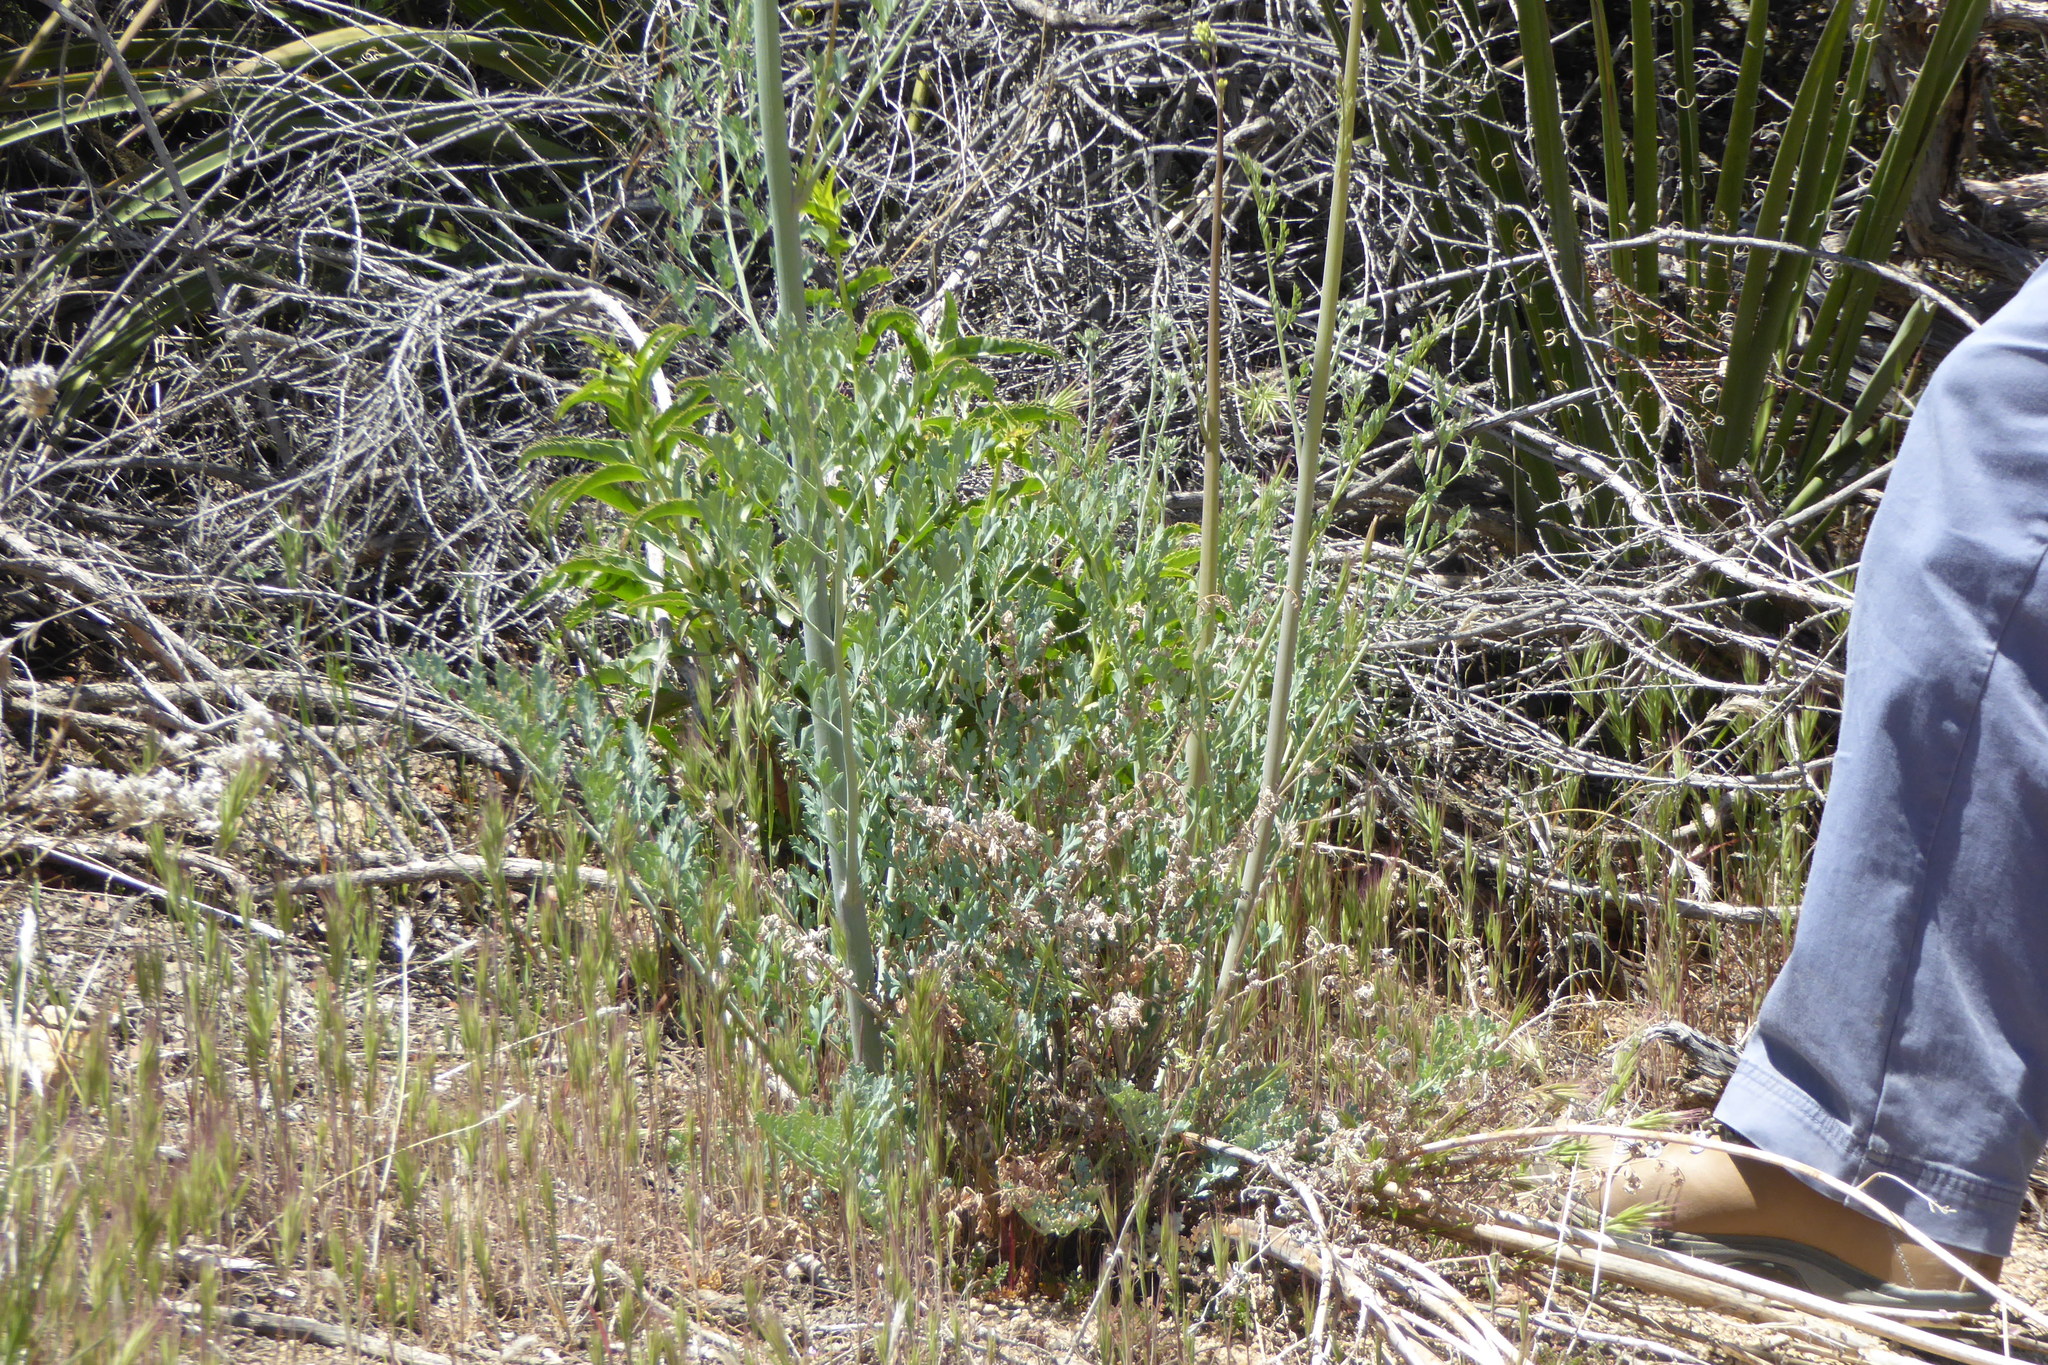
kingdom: Plantae
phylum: Tracheophyta
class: Magnoliopsida
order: Lamiales
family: Plantaginaceae
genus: Penstemon
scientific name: Penstemon spectabilis
